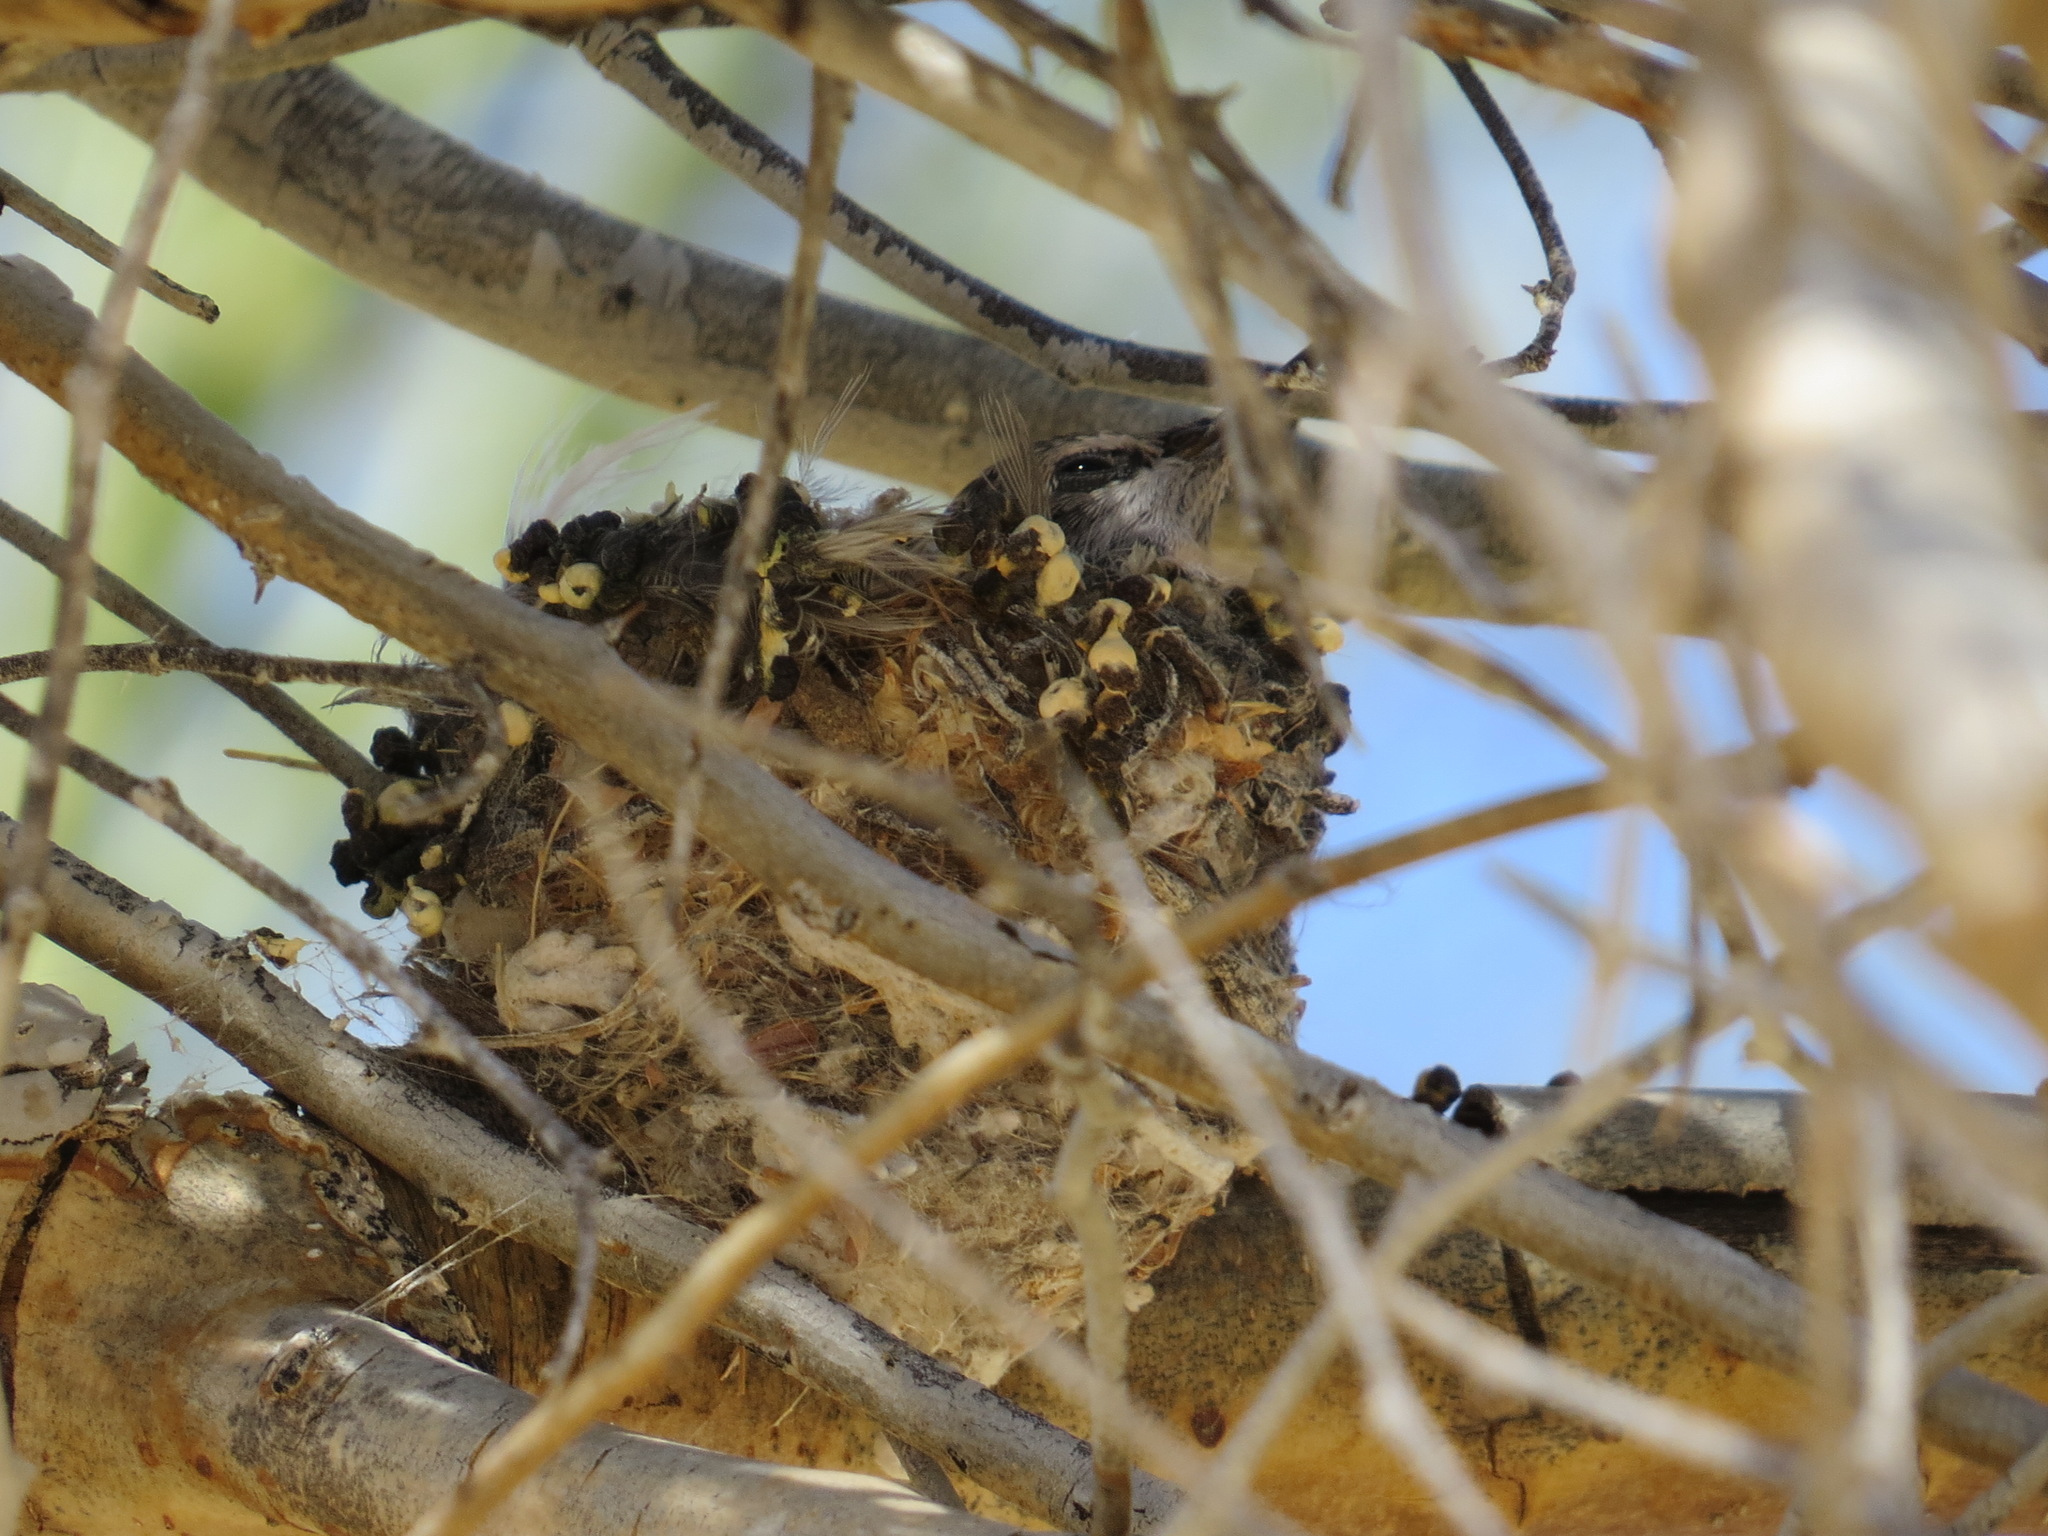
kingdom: Animalia
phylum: Chordata
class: Aves
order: Apodiformes
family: Trochilidae
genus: Calypte
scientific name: Calypte costae
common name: Costa's hummingbird
